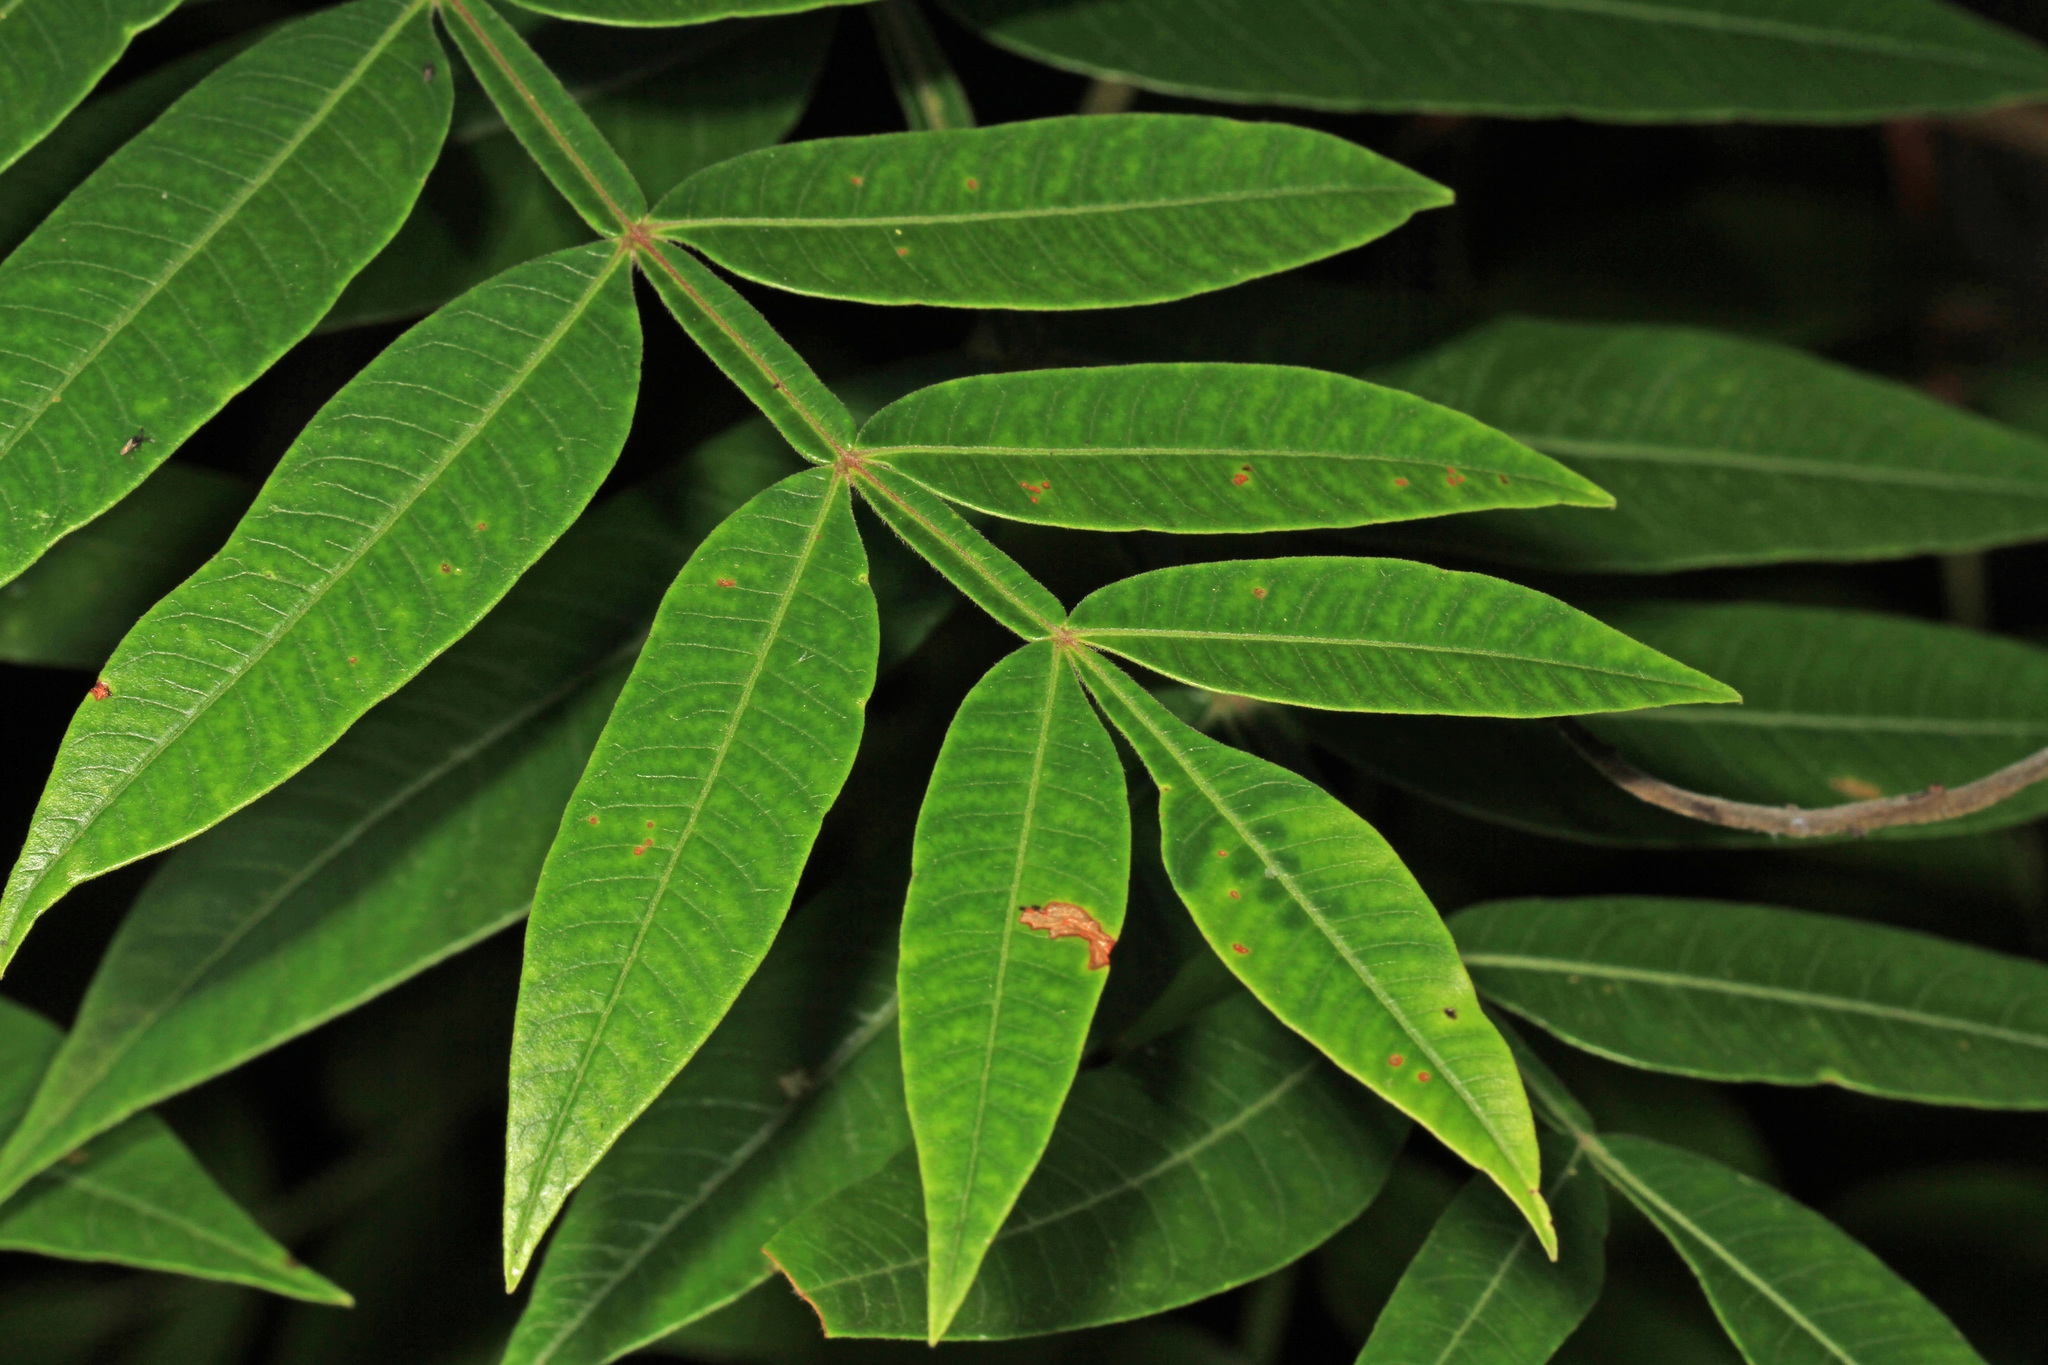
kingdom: Plantae
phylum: Tracheophyta
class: Magnoliopsida
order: Sapindales
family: Anacardiaceae
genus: Rhus
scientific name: Rhus copallina
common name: Shining sumac
